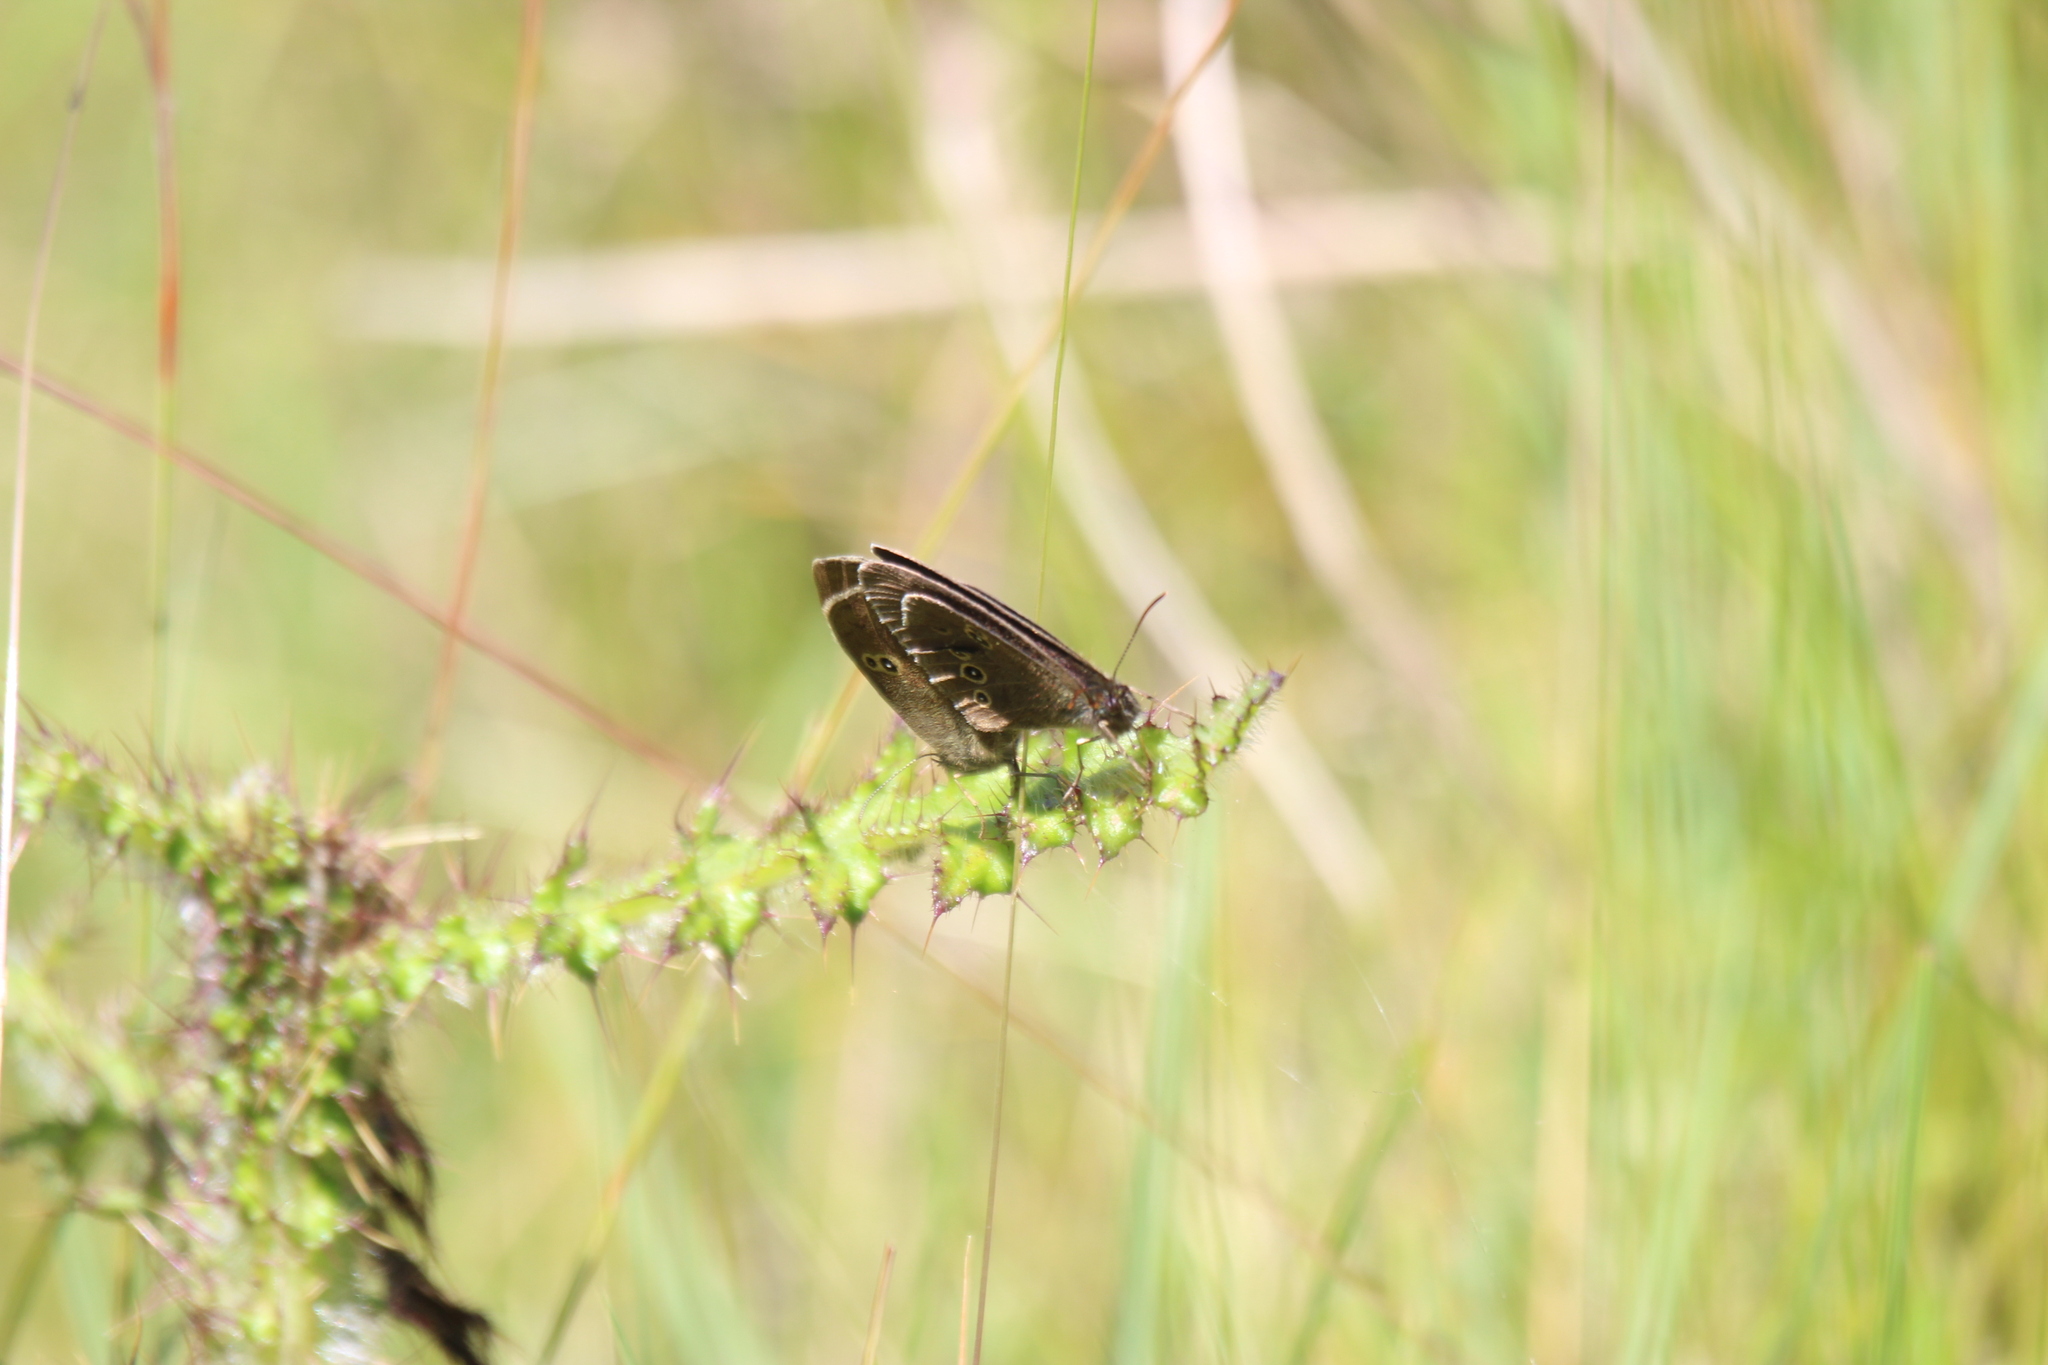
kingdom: Animalia
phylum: Arthropoda
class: Insecta
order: Lepidoptera
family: Nymphalidae
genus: Aphantopus
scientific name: Aphantopus hyperantus
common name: Ringlet
